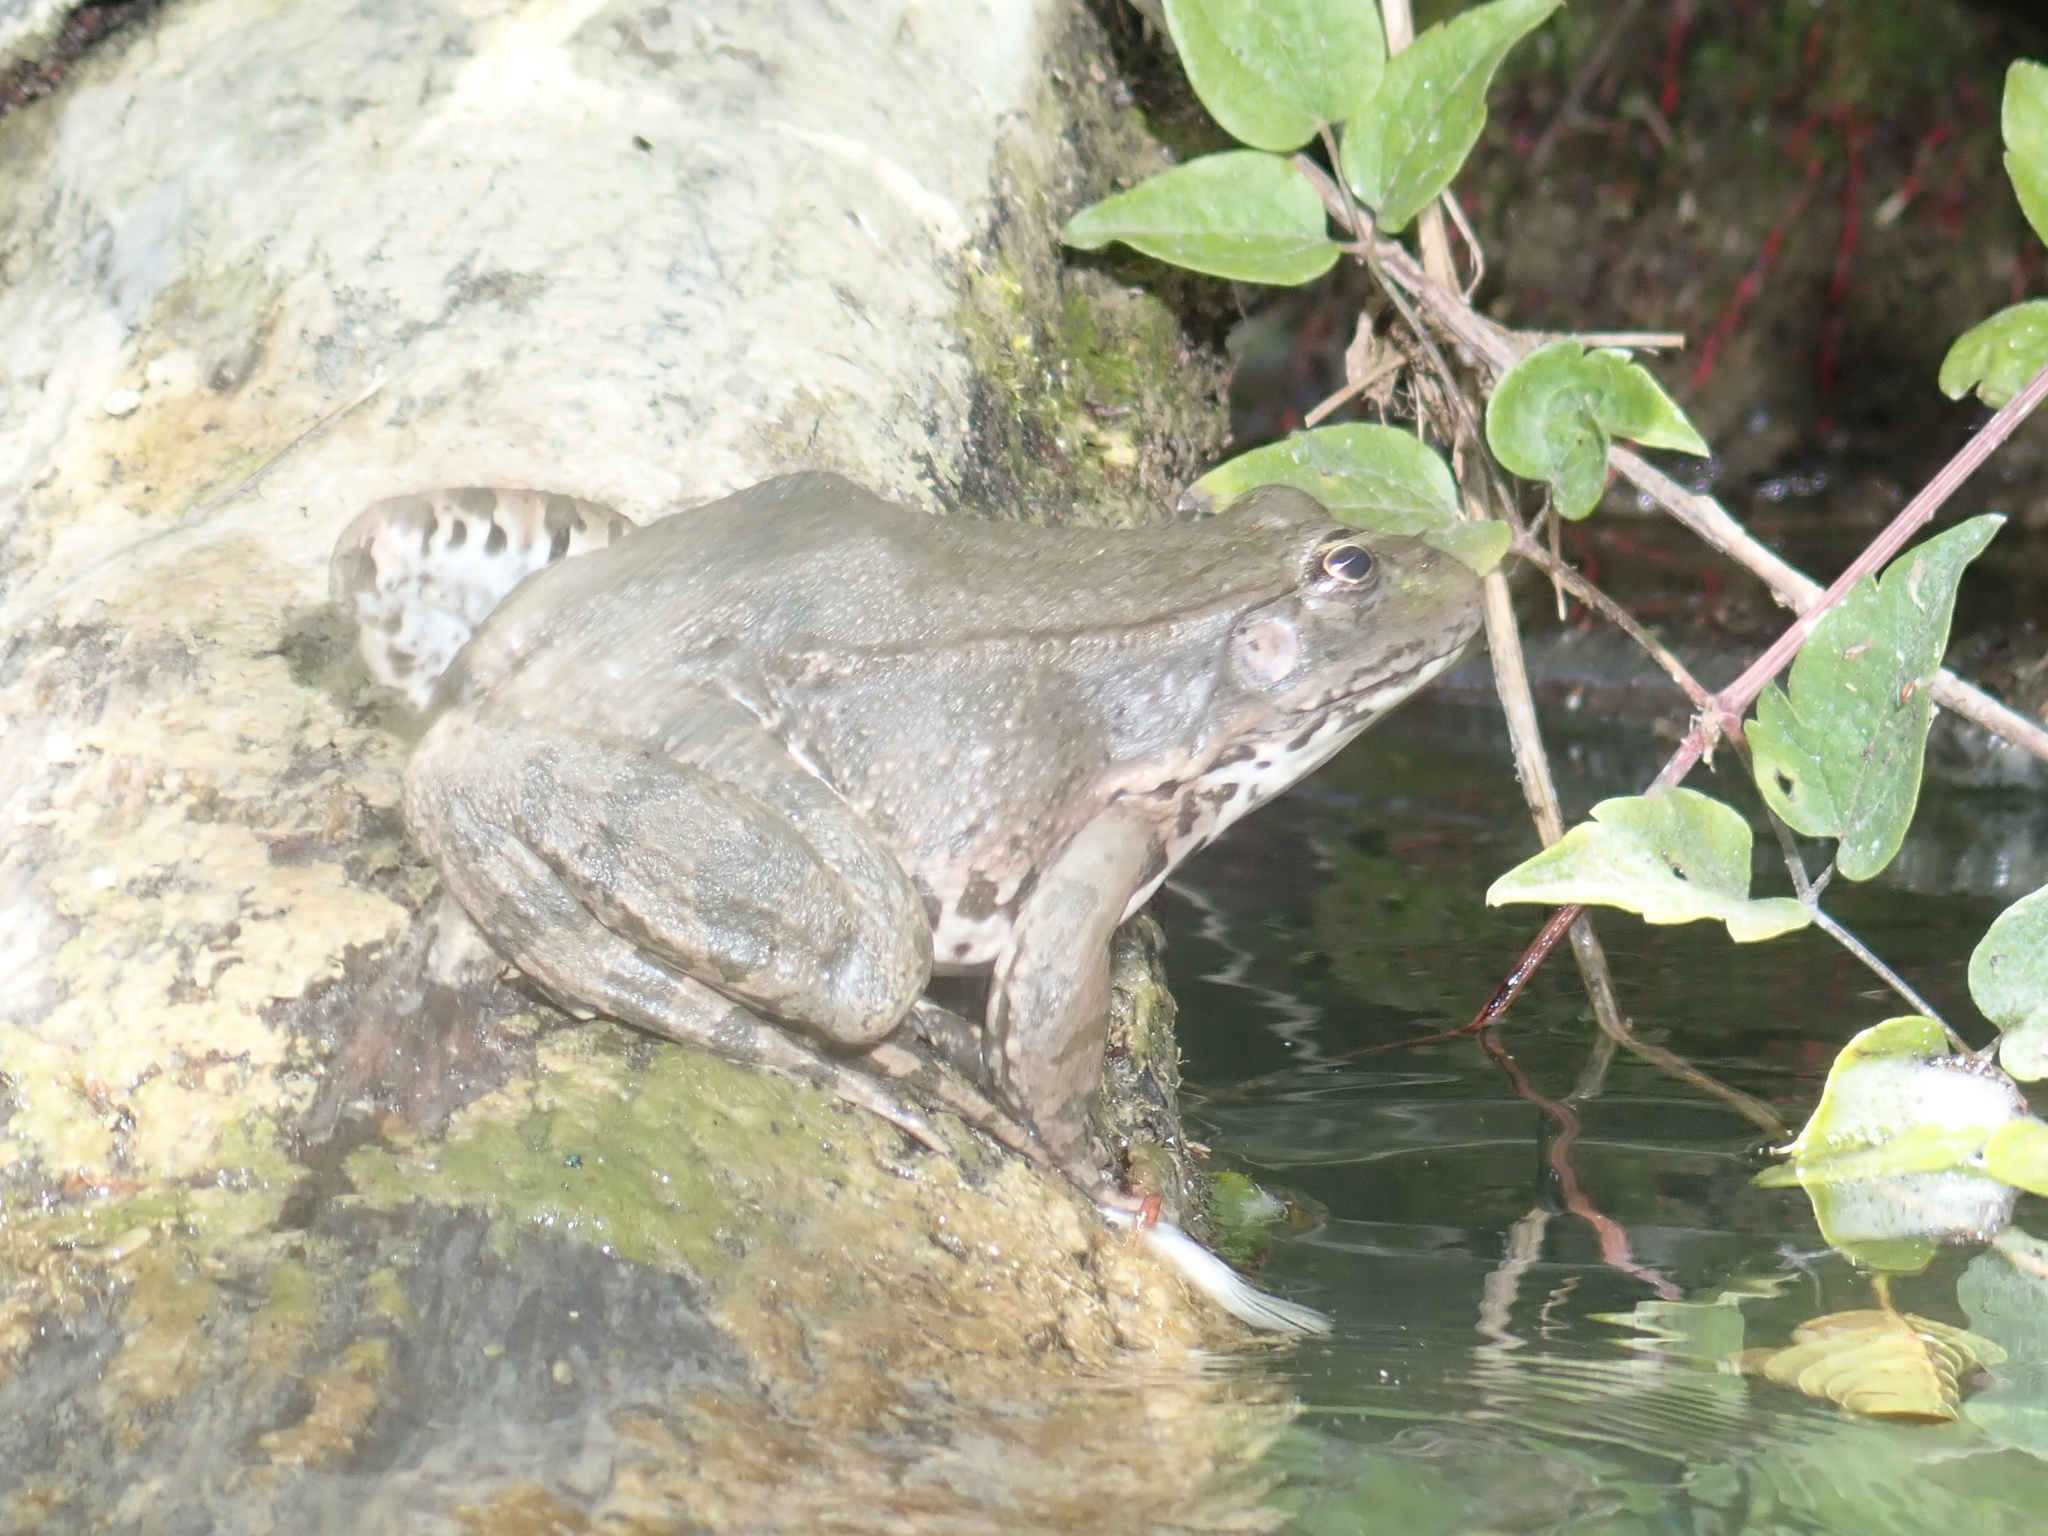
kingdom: Animalia
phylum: Chordata
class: Amphibia
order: Anura
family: Ranidae
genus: Pelophylax
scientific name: Pelophylax
